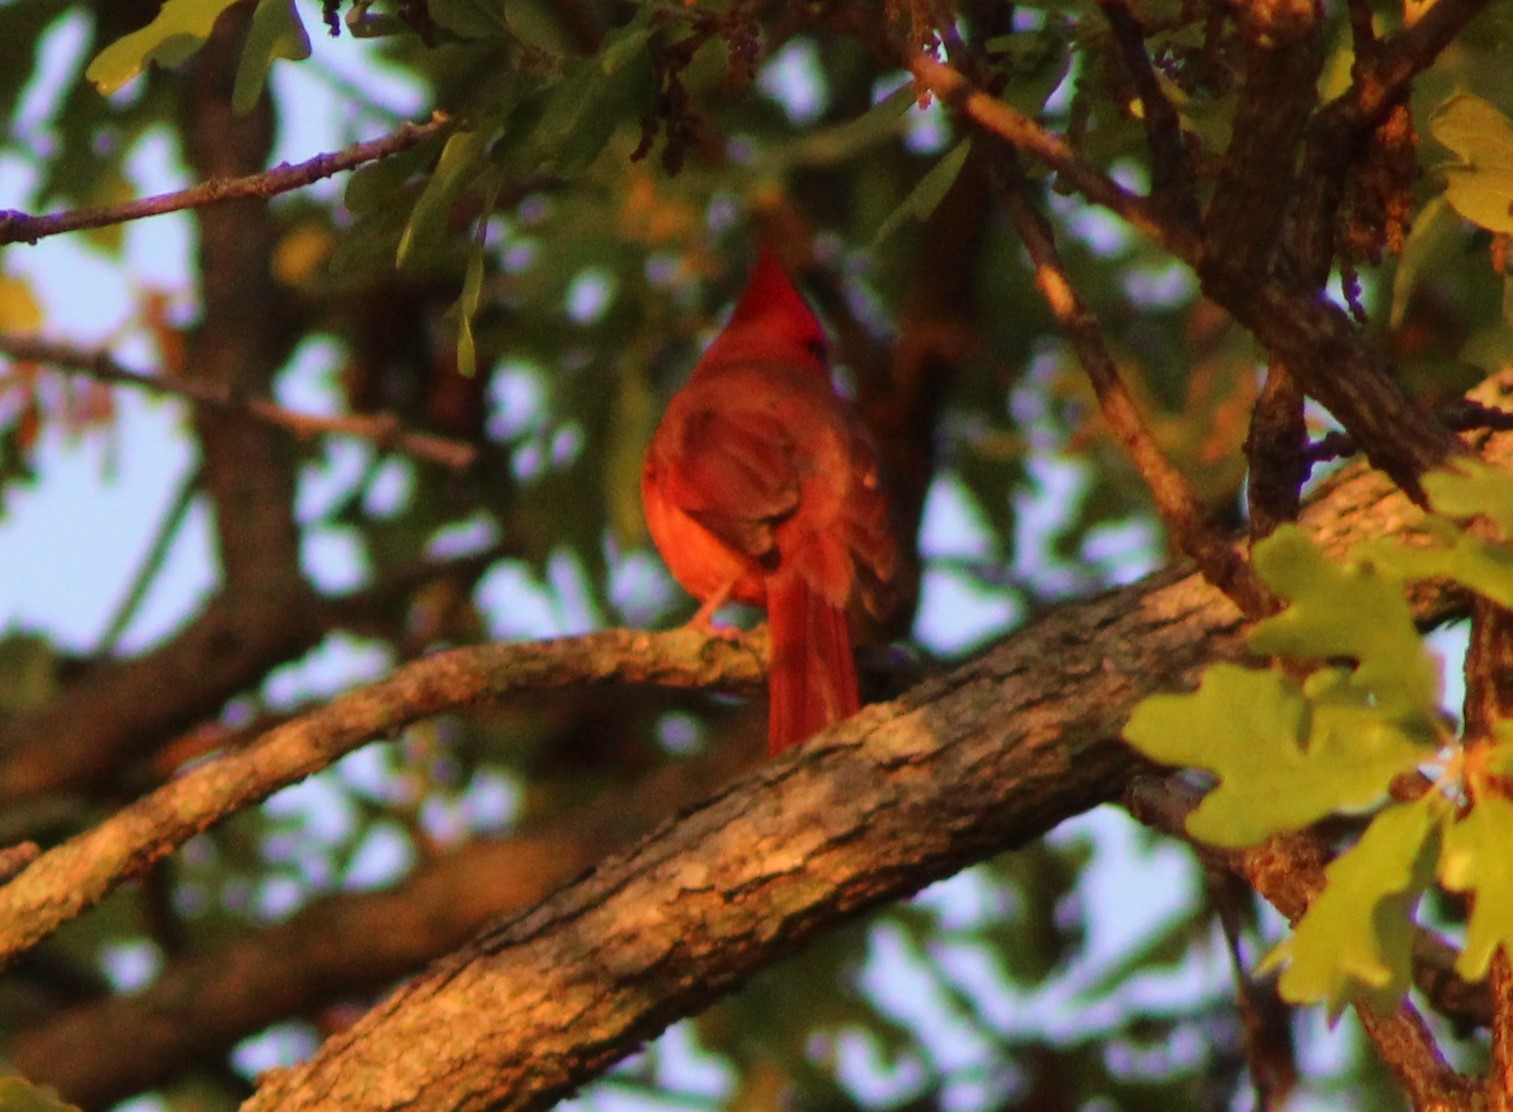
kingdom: Animalia
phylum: Chordata
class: Aves
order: Passeriformes
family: Cardinalidae
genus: Cardinalis
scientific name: Cardinalis cardinalis
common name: Northern cardinal
